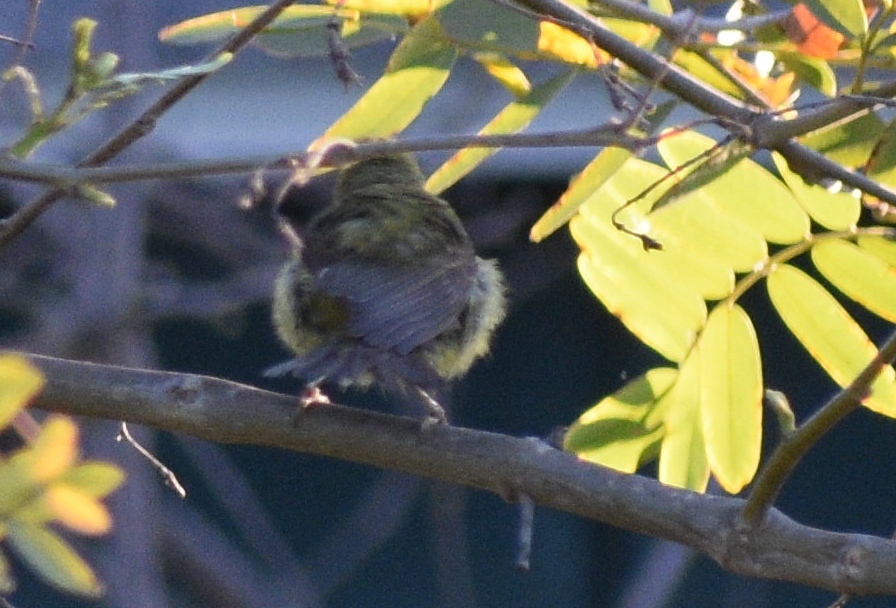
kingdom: Animalia
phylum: Chordata
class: Aves
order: Passeriformes
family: Parulidae
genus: Leiothlypis
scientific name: Leiothlypis celata
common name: Orange-crowned warbler
